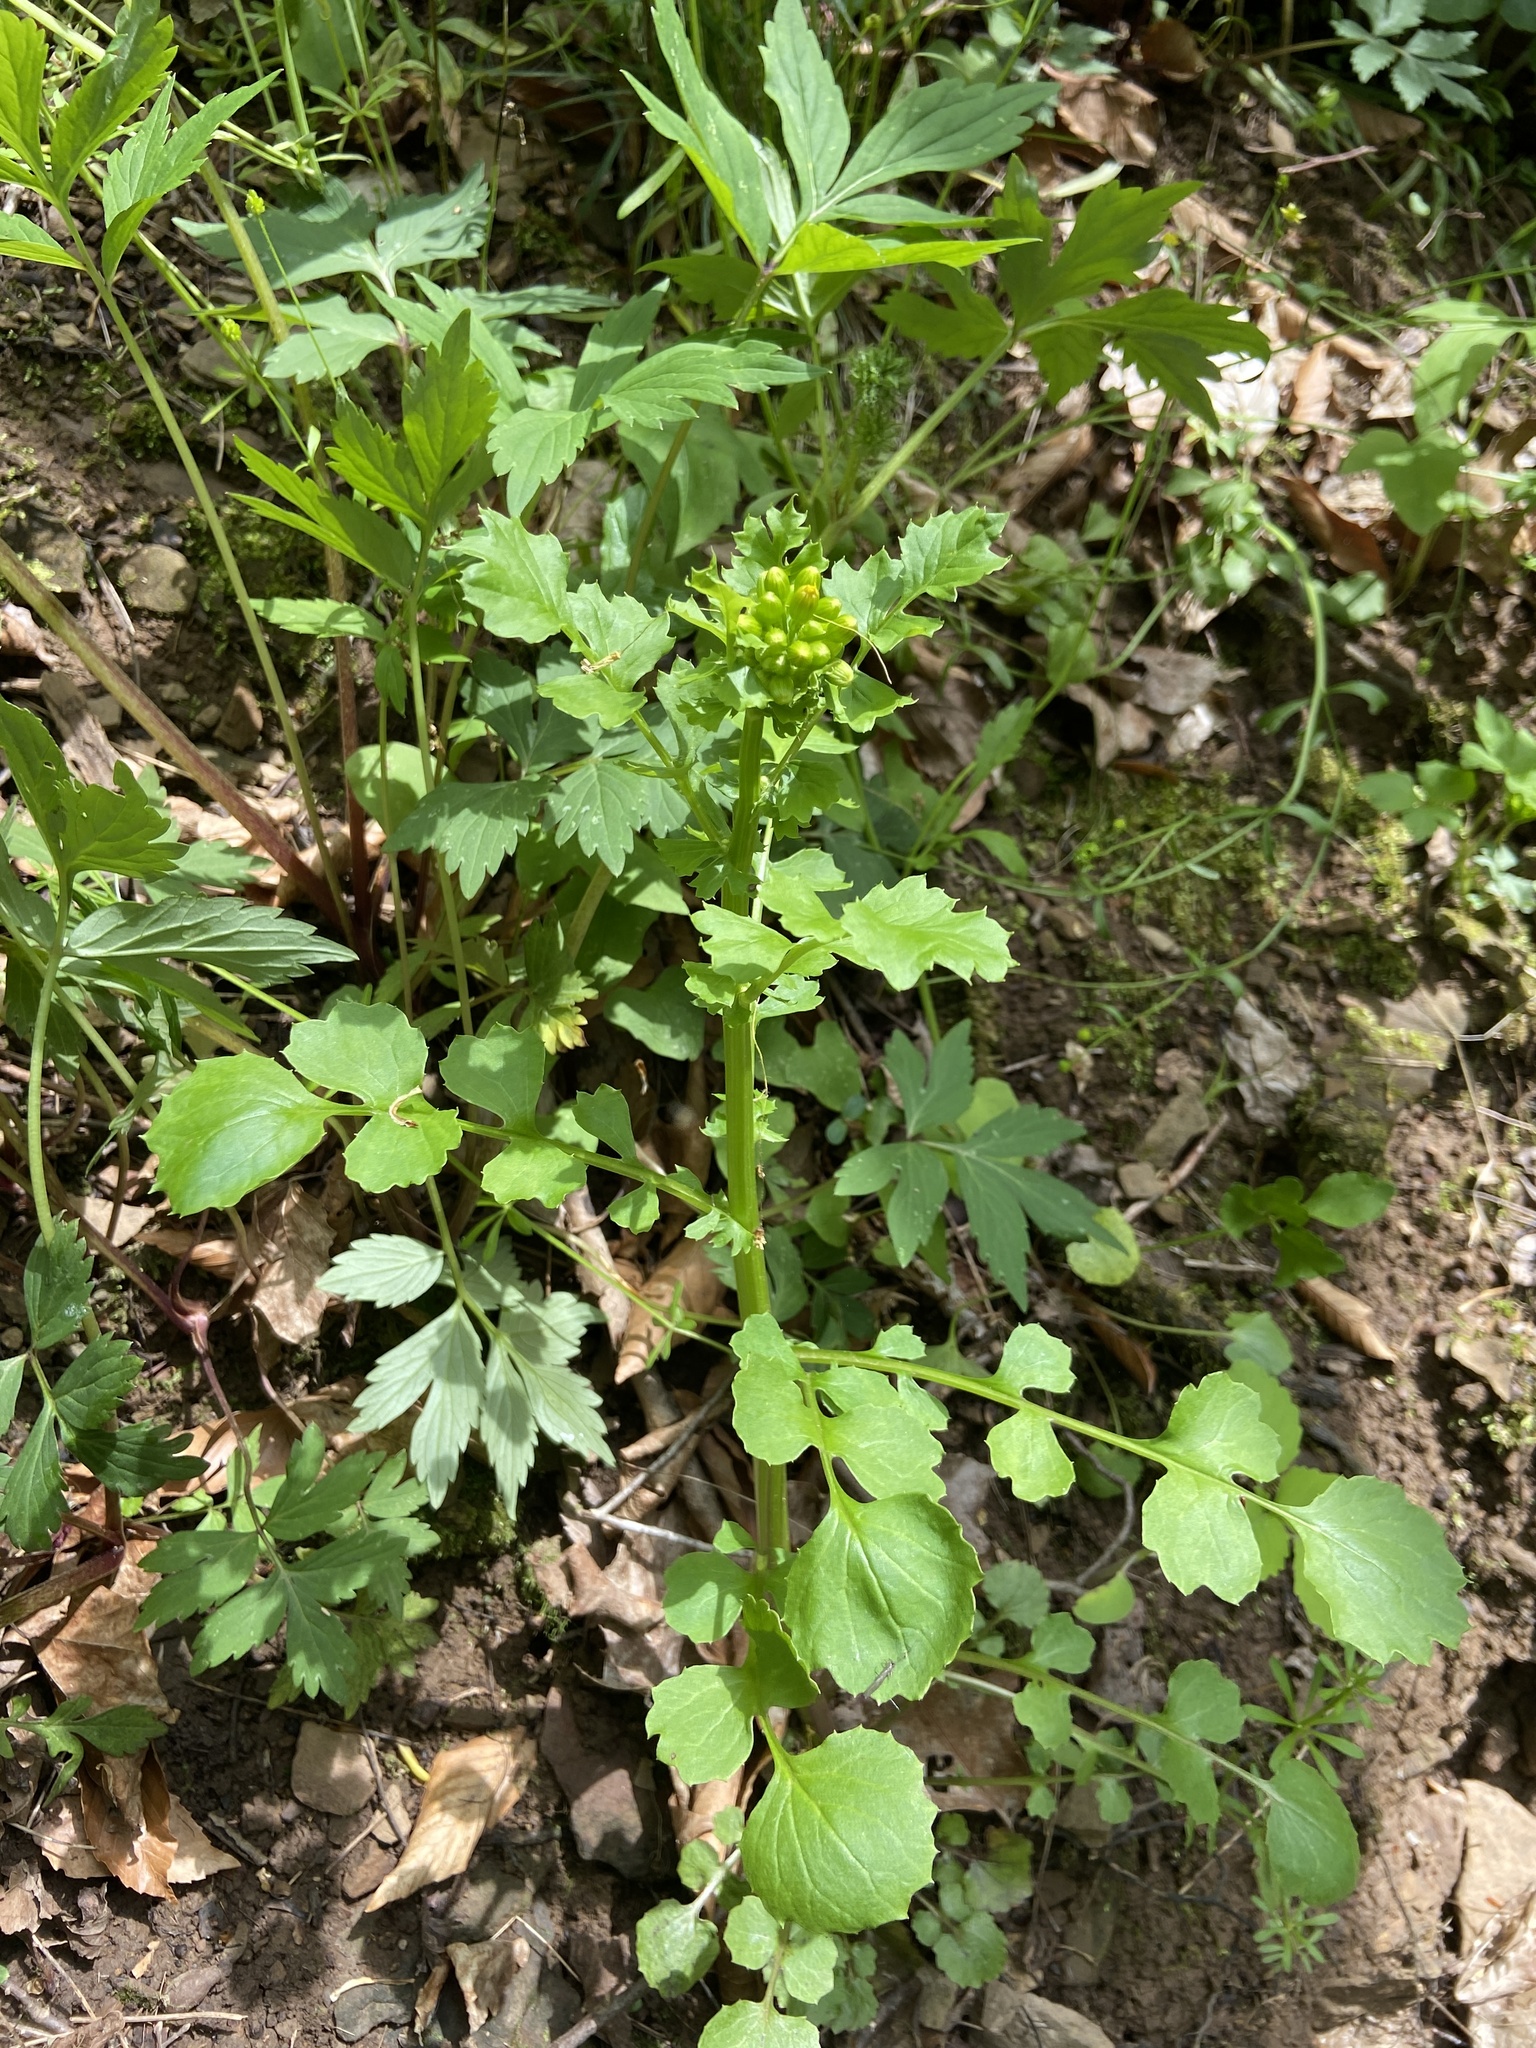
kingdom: Plantae
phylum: Tracheophyta
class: Magnoliopsida
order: Asterales
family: Asteraceae
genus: Packera
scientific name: Packera glabella
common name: Butterweed
